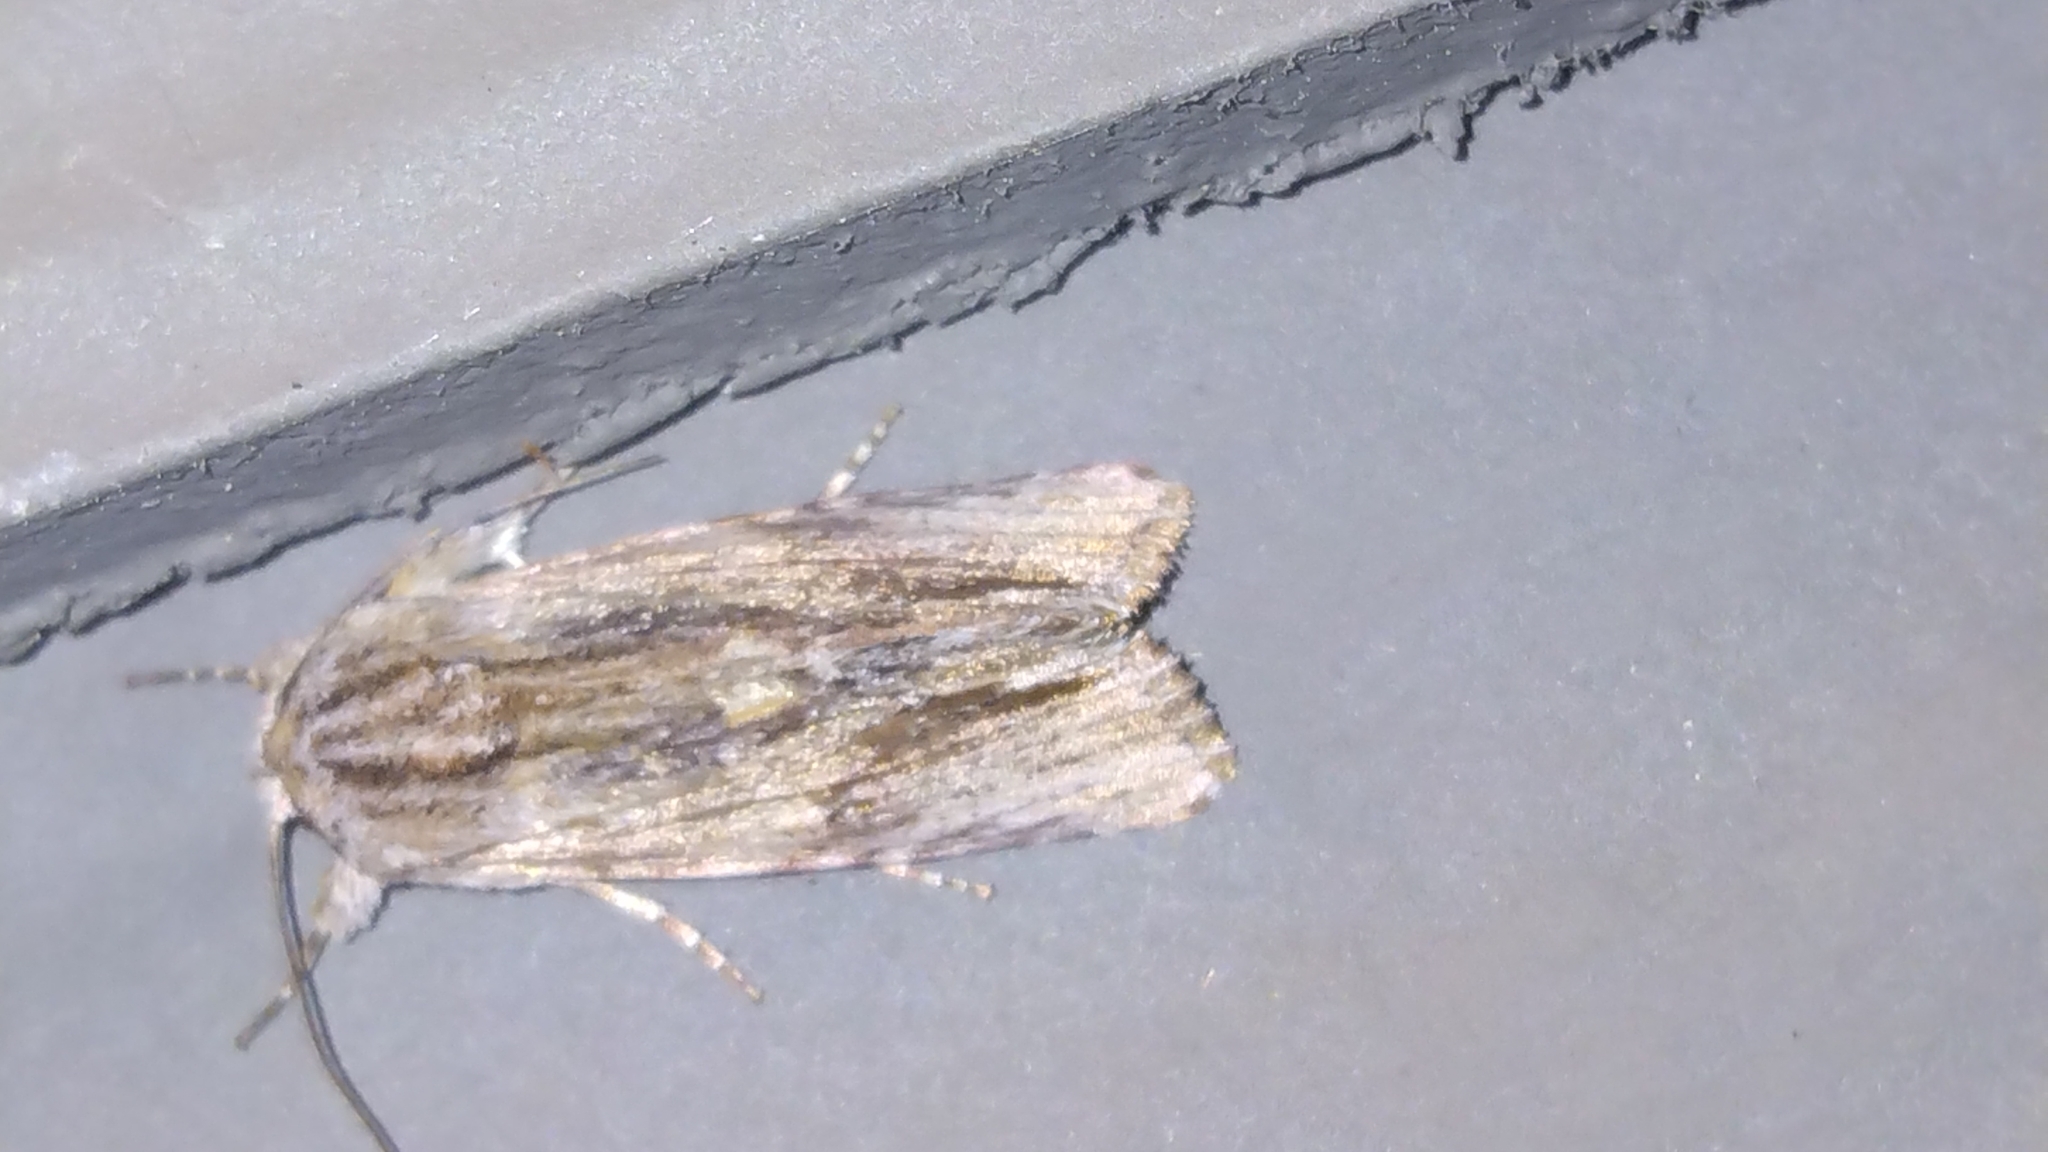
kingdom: Animalia
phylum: Arthropoda
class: Insecta
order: Lepidoptera
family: Noctuidae
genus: Spodoptera
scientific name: Spodoptera eridania
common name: Southern army worm
